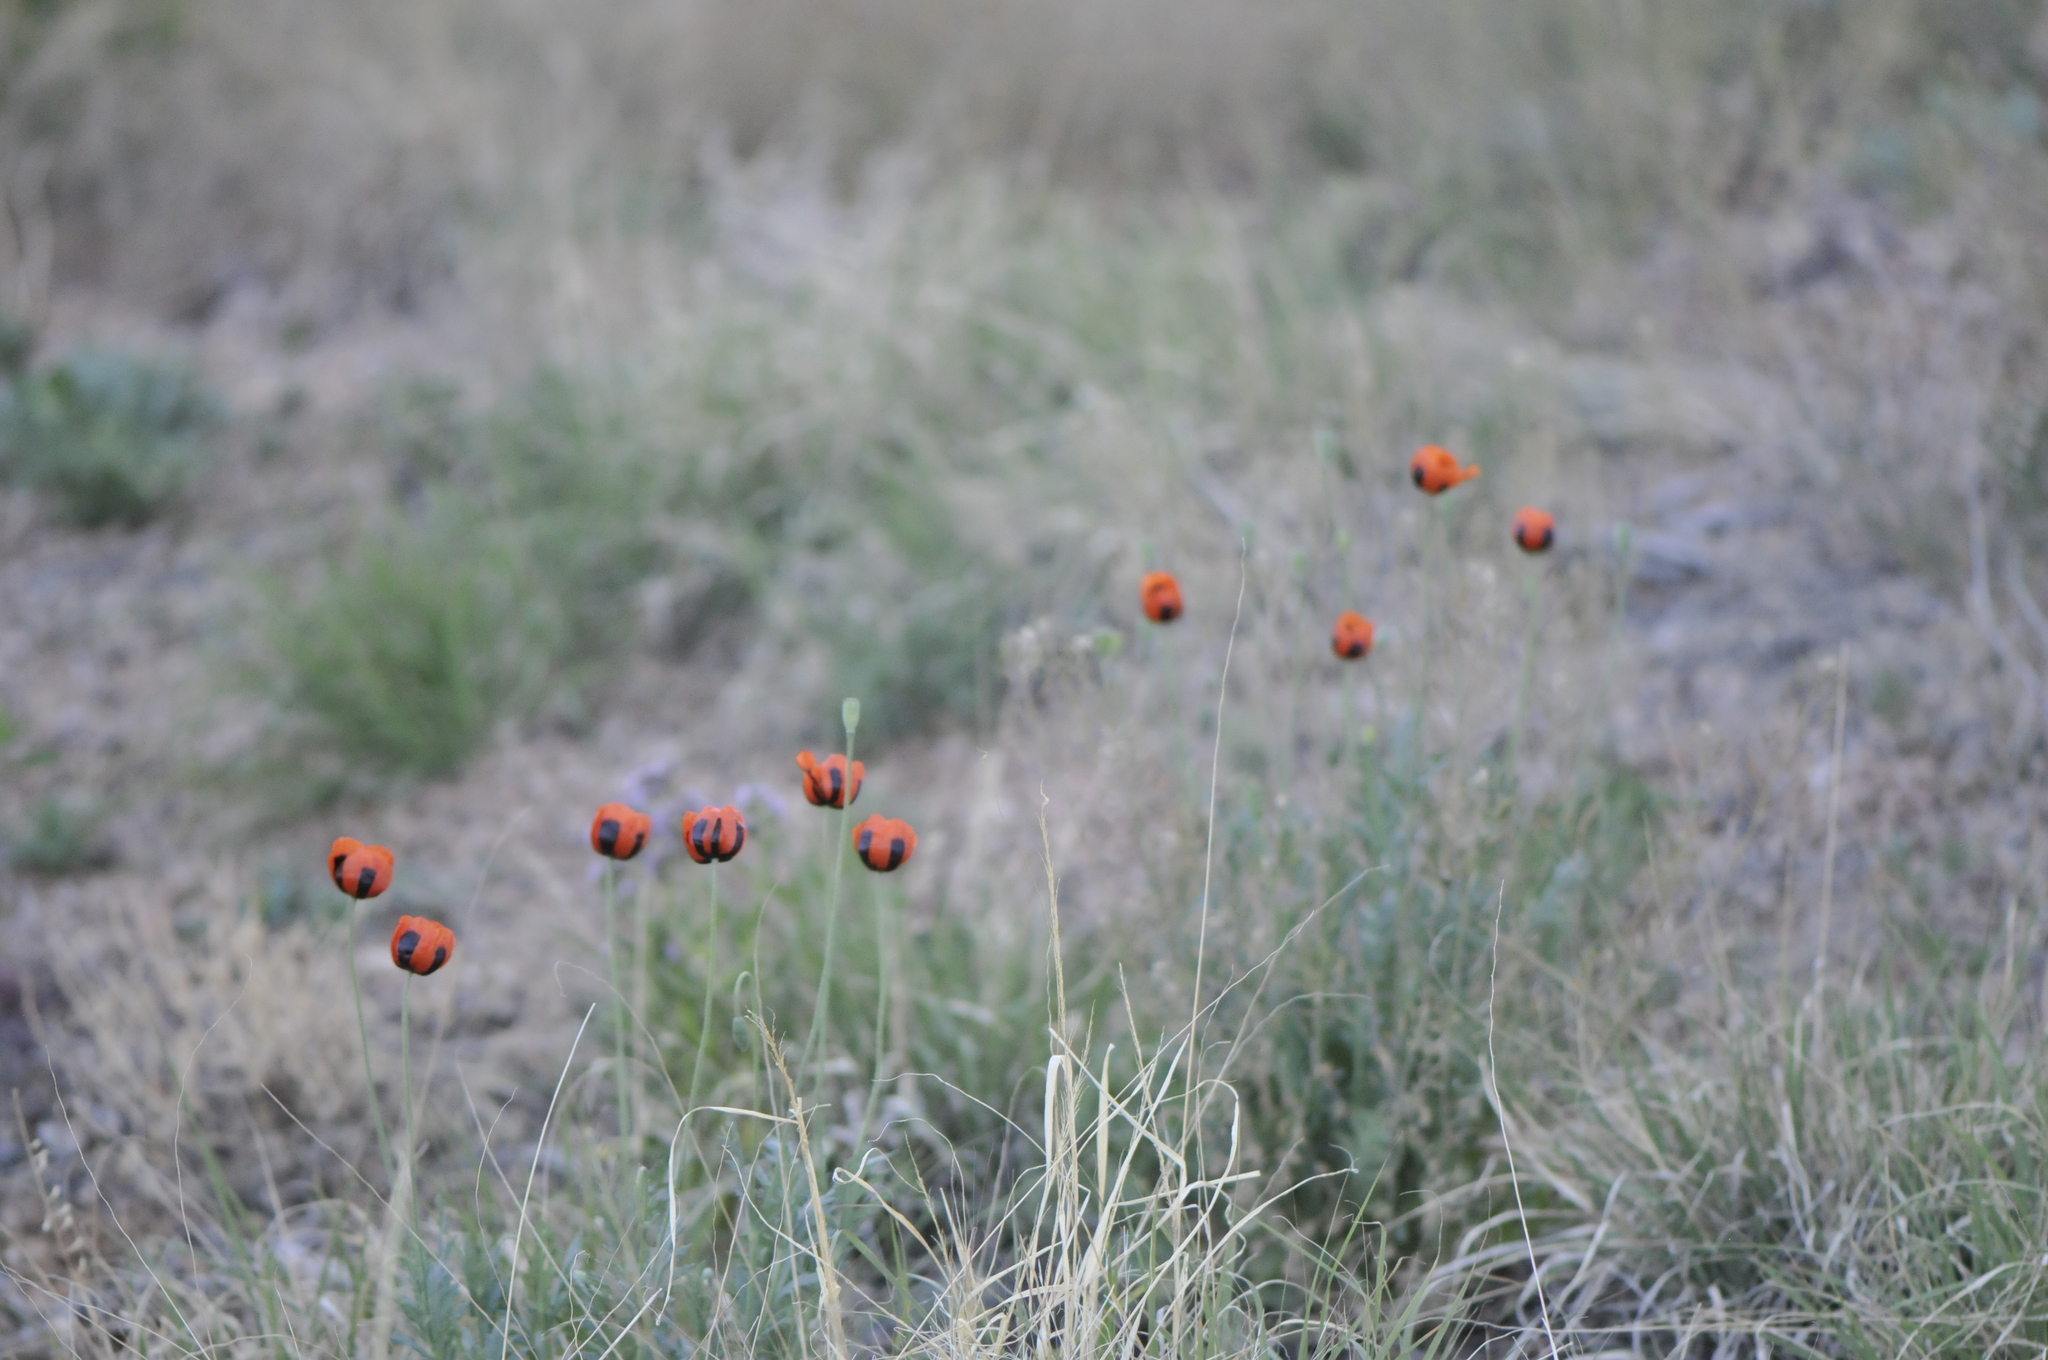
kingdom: Plantae
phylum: Tracheophyta
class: Magnoliopsida
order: Ranunculales
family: Papaveraceae
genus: Papaver
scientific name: Papaver dubium
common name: Long-headed poppy
